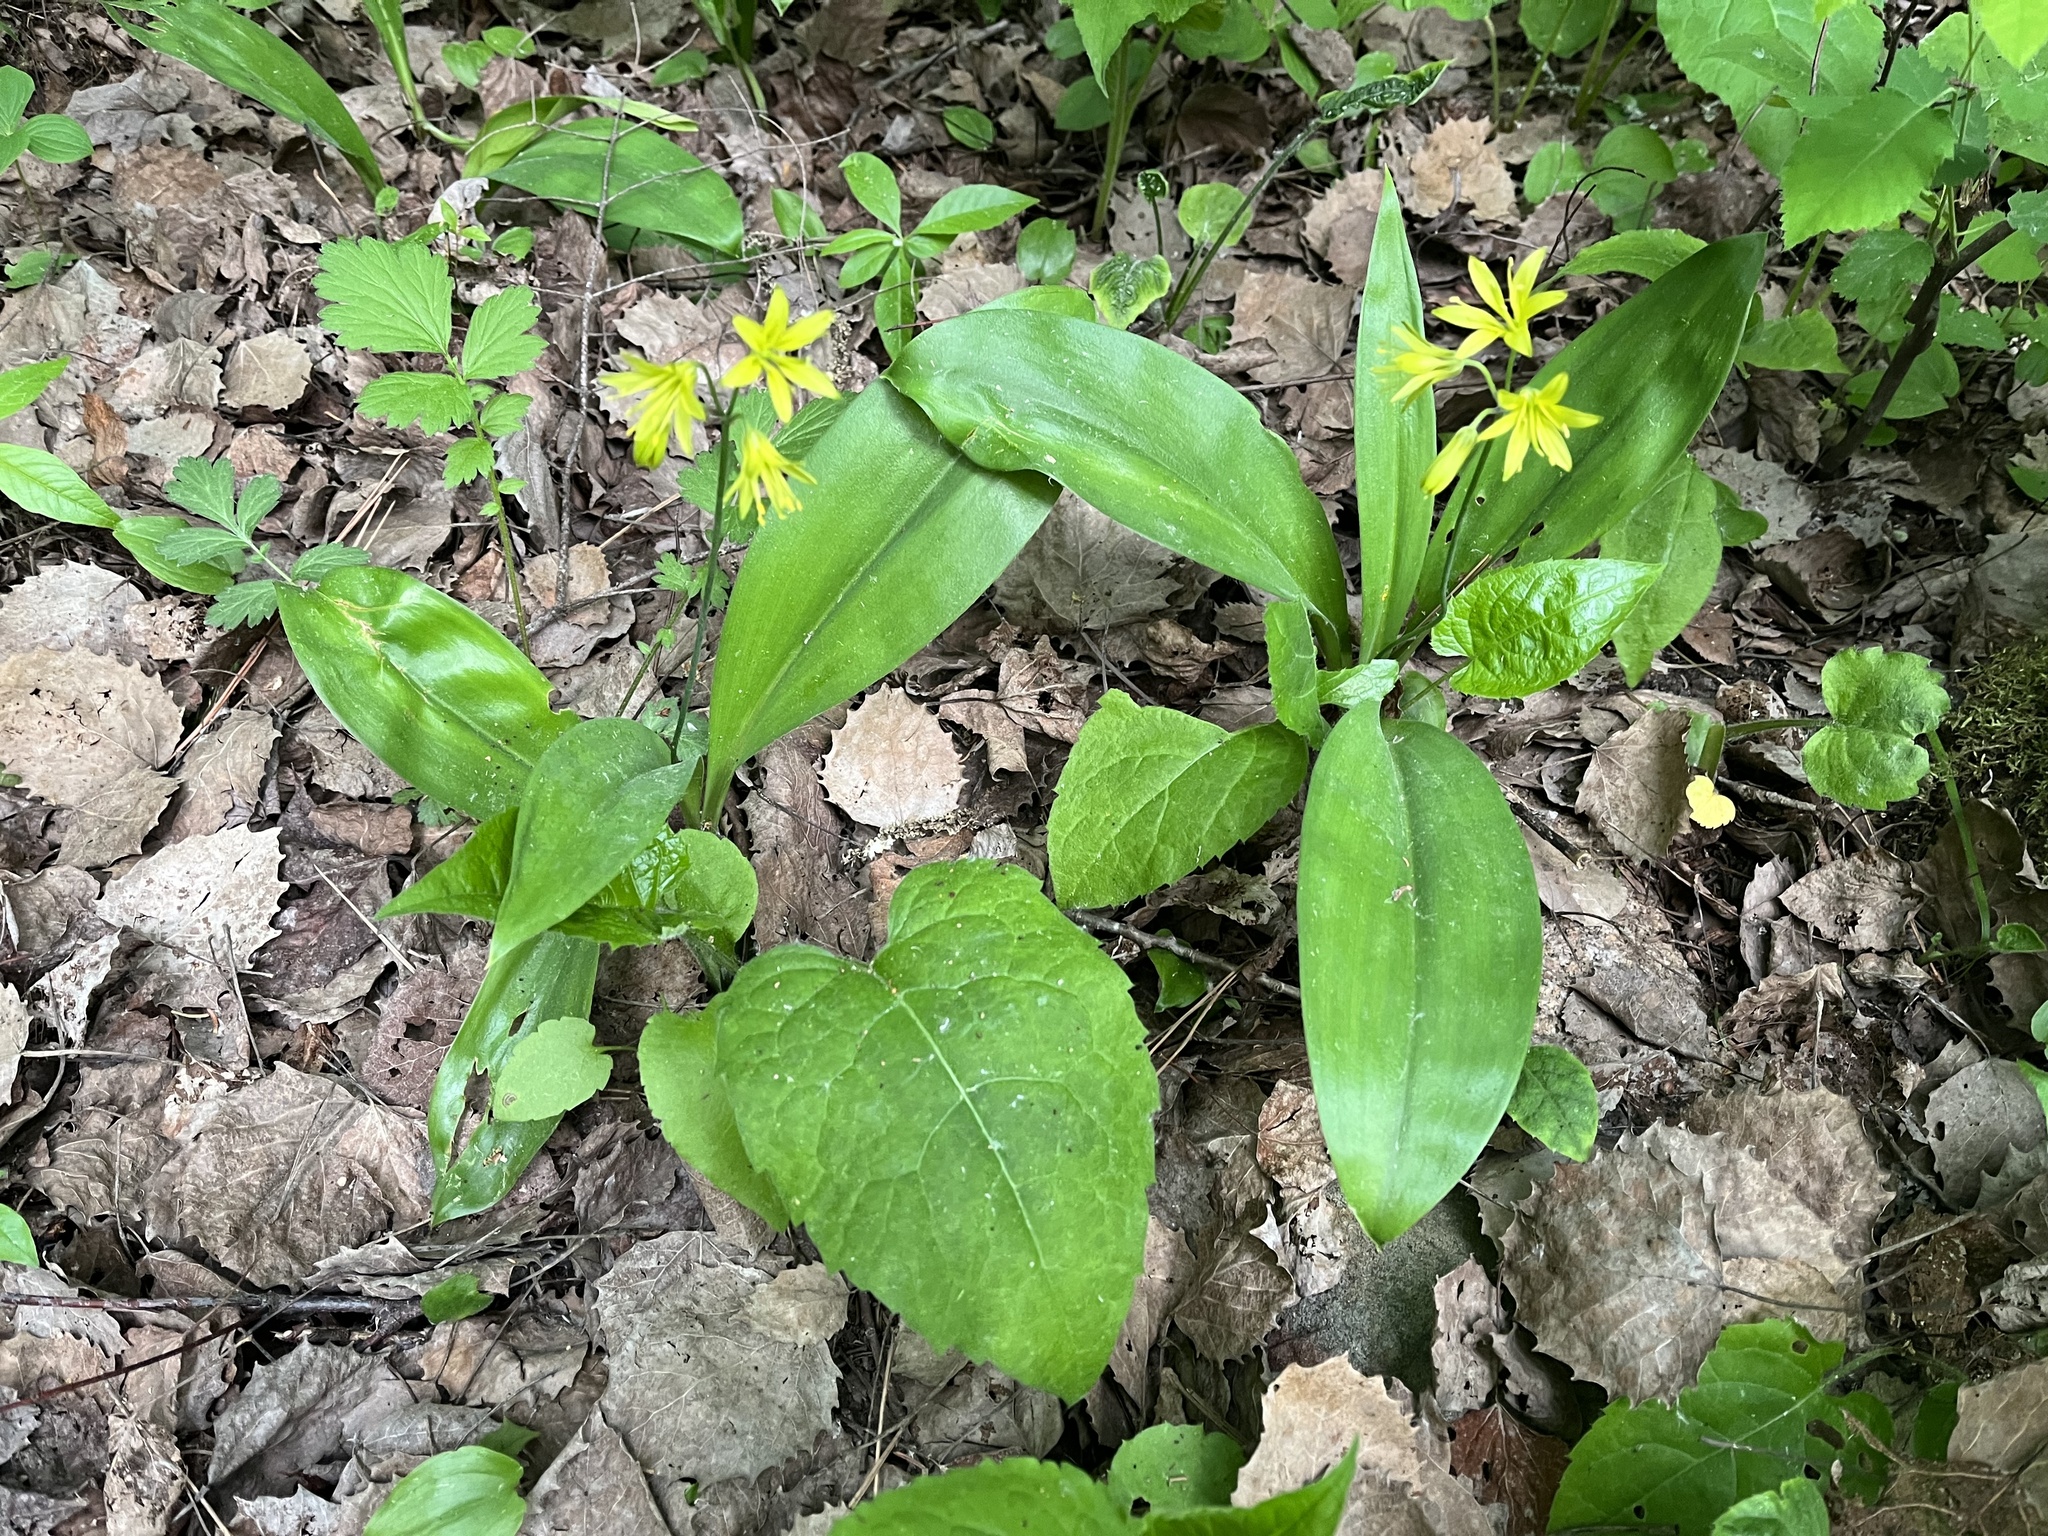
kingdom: Plantae
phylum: Tracheophyta
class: Liliopsida
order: Liliales
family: Liliaceae
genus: Clintonia
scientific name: Clintonia borealis
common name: Yellow clintonia
